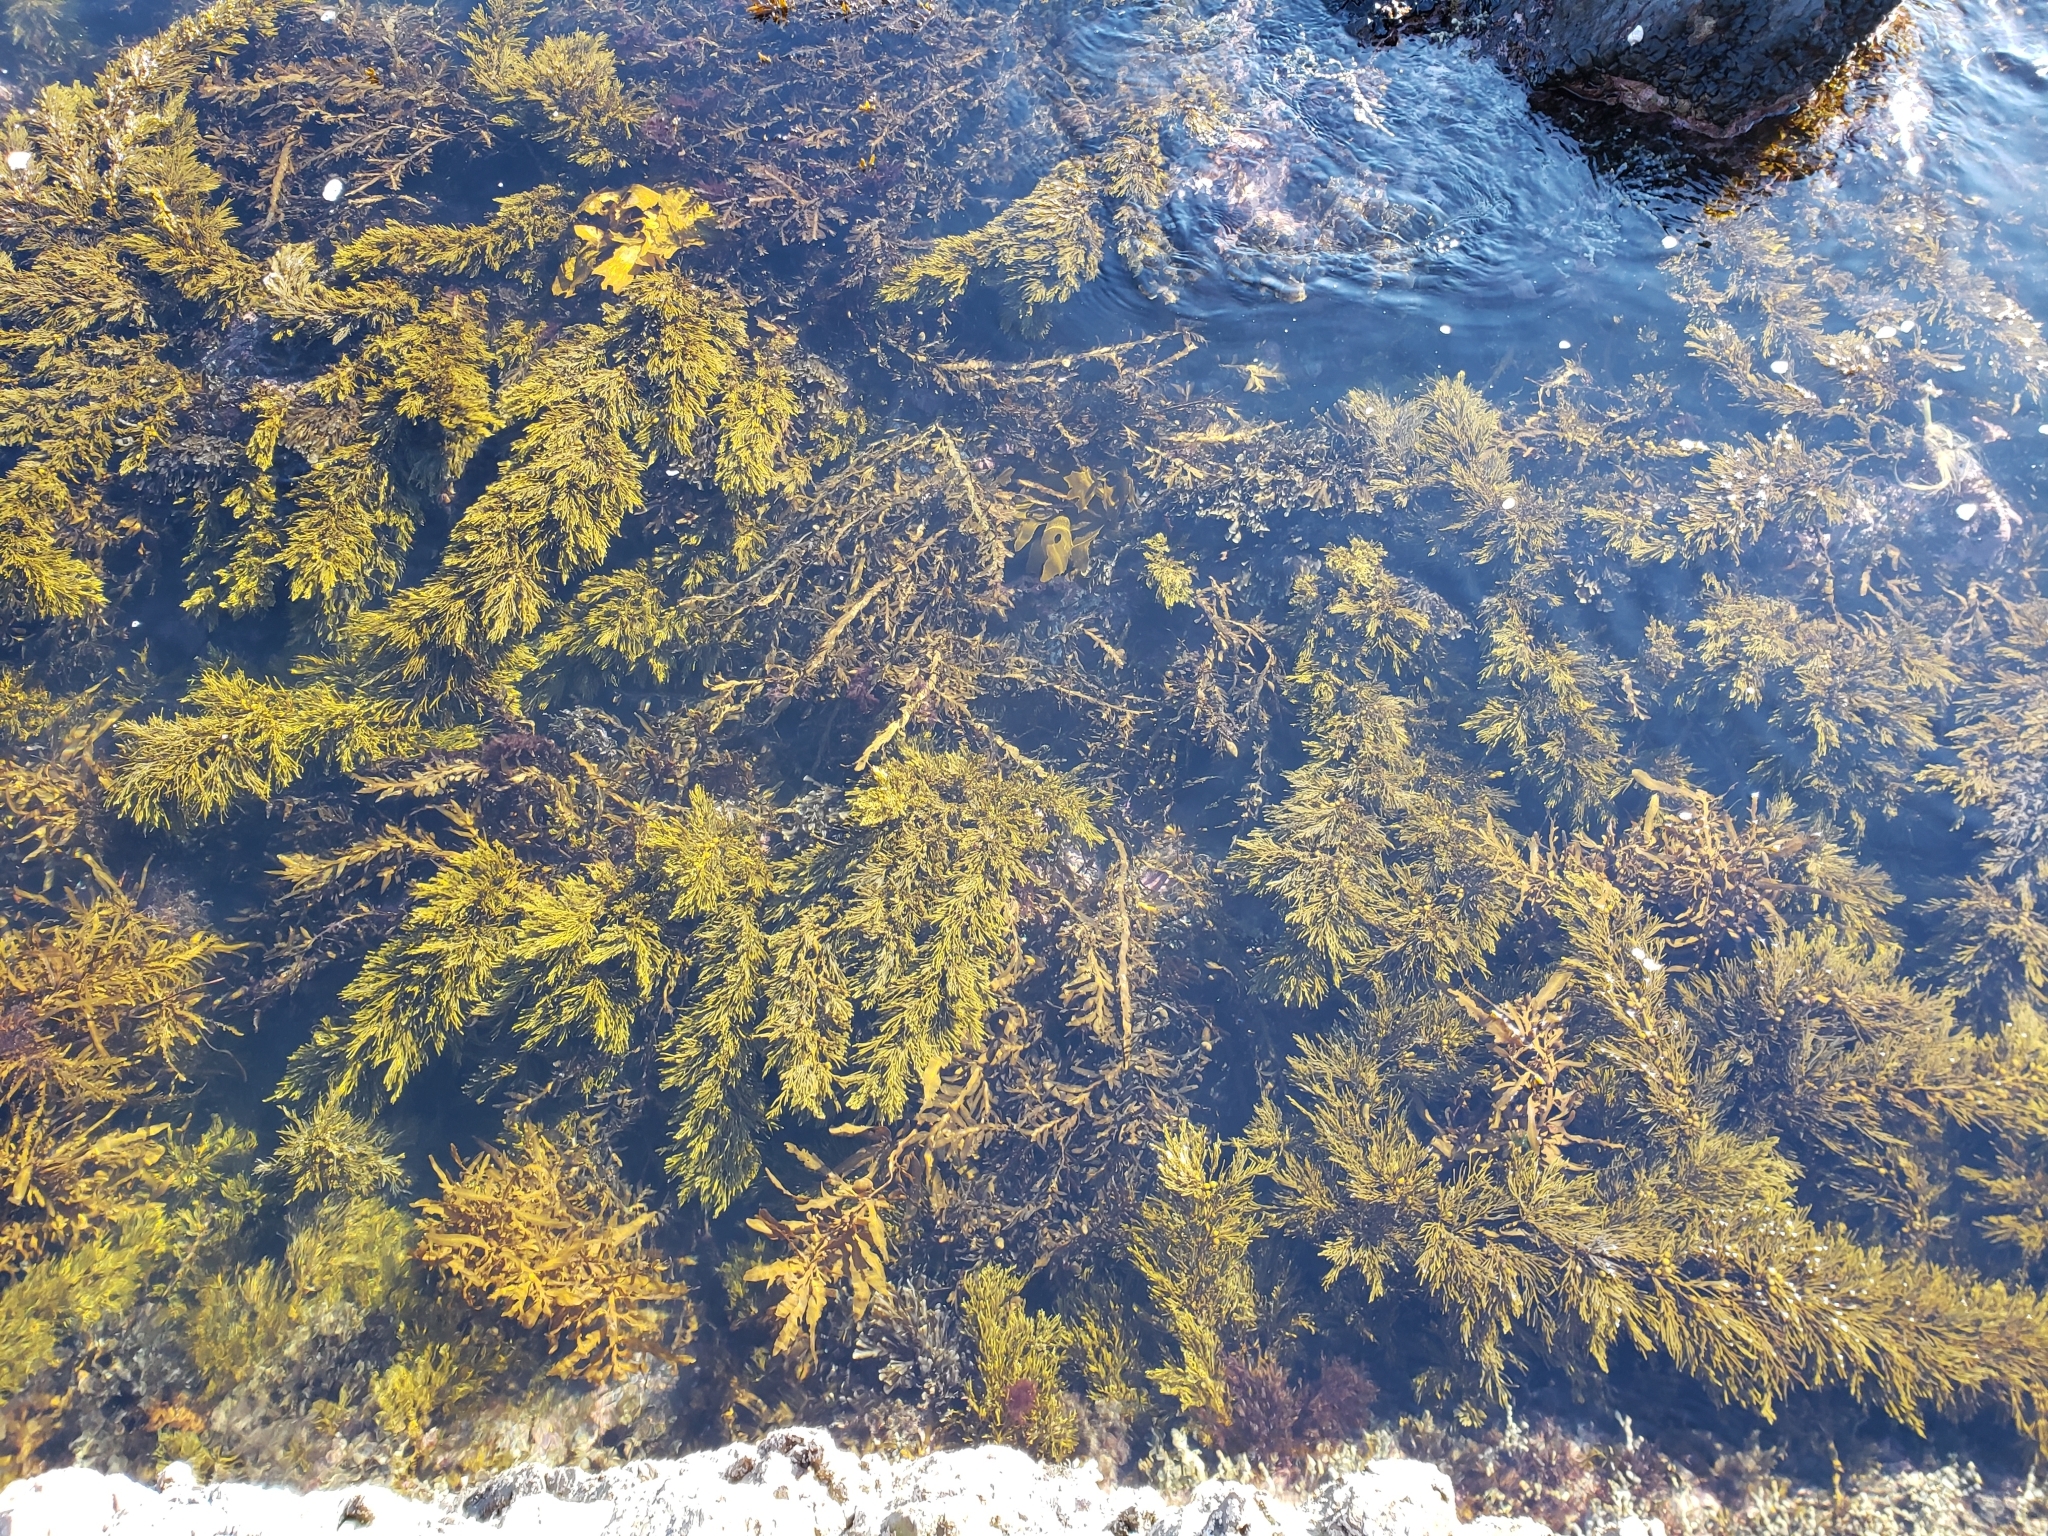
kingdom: Chromista
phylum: Ochrophyta
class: Phaeophyceae
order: Fucales
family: Sargassaceae
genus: Cystophora
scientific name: Cystophora scalaris
